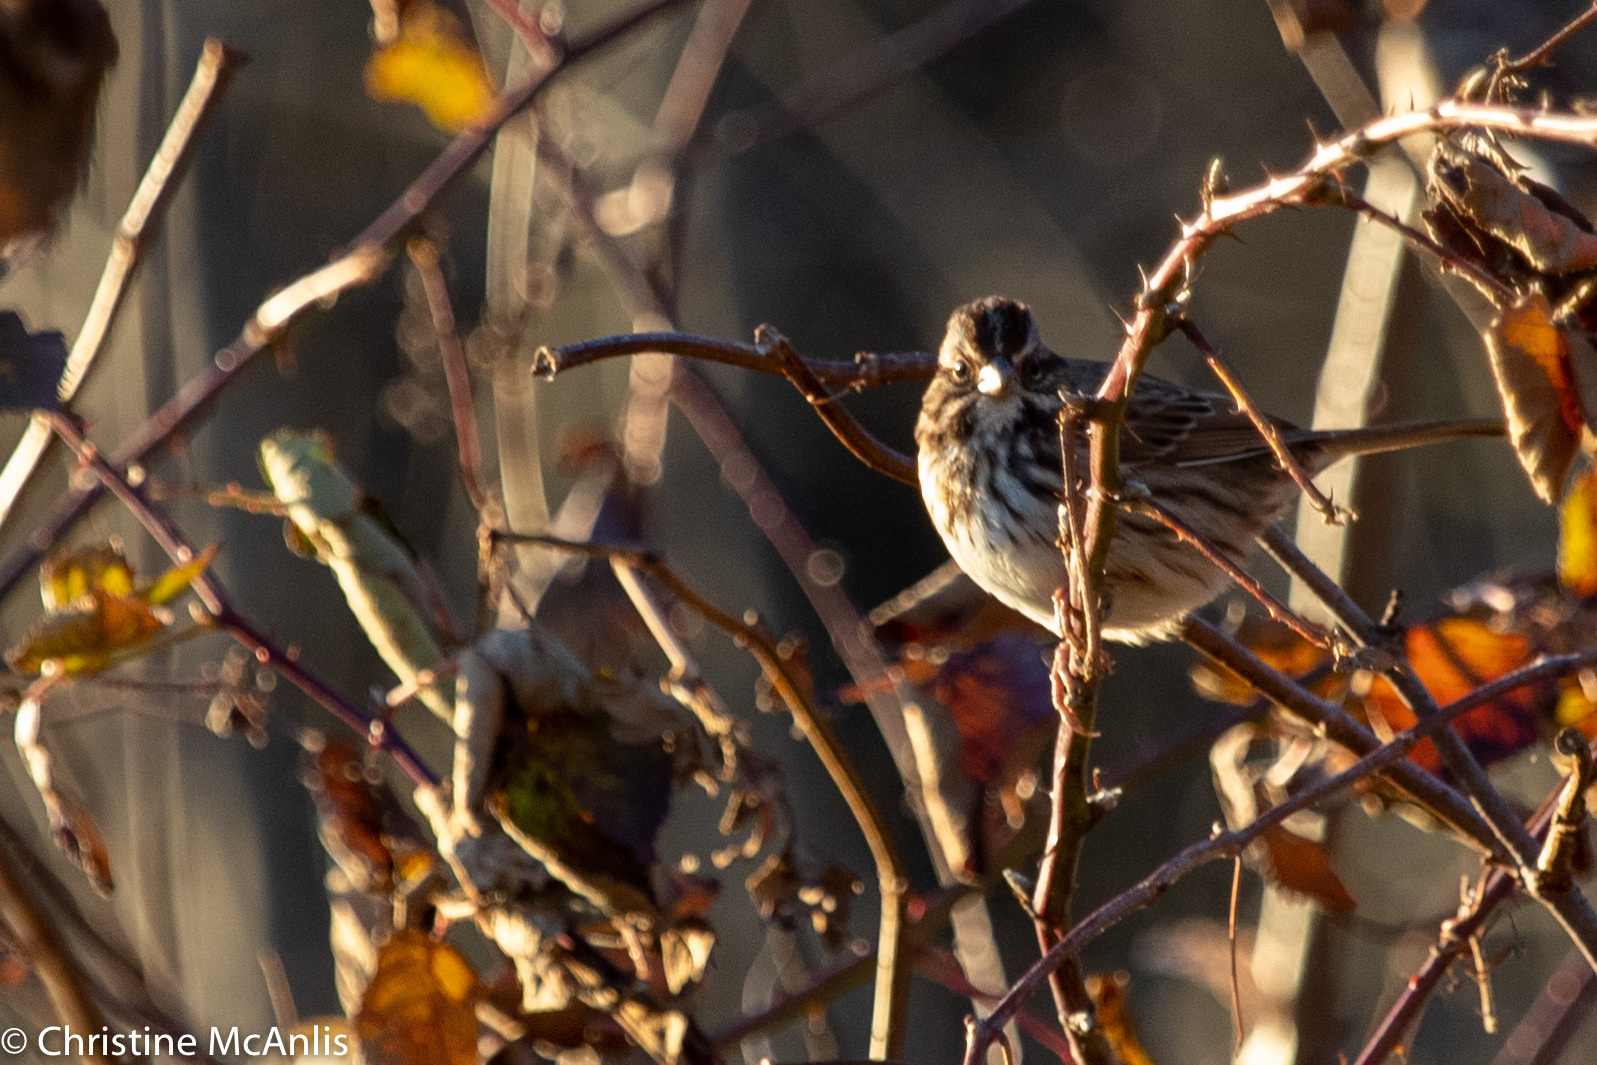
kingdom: Animalia
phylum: Chordata
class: Aves
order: Passeriformes
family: Passerellidae
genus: Melospiza
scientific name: Melospiza melodia
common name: Song sparrow
